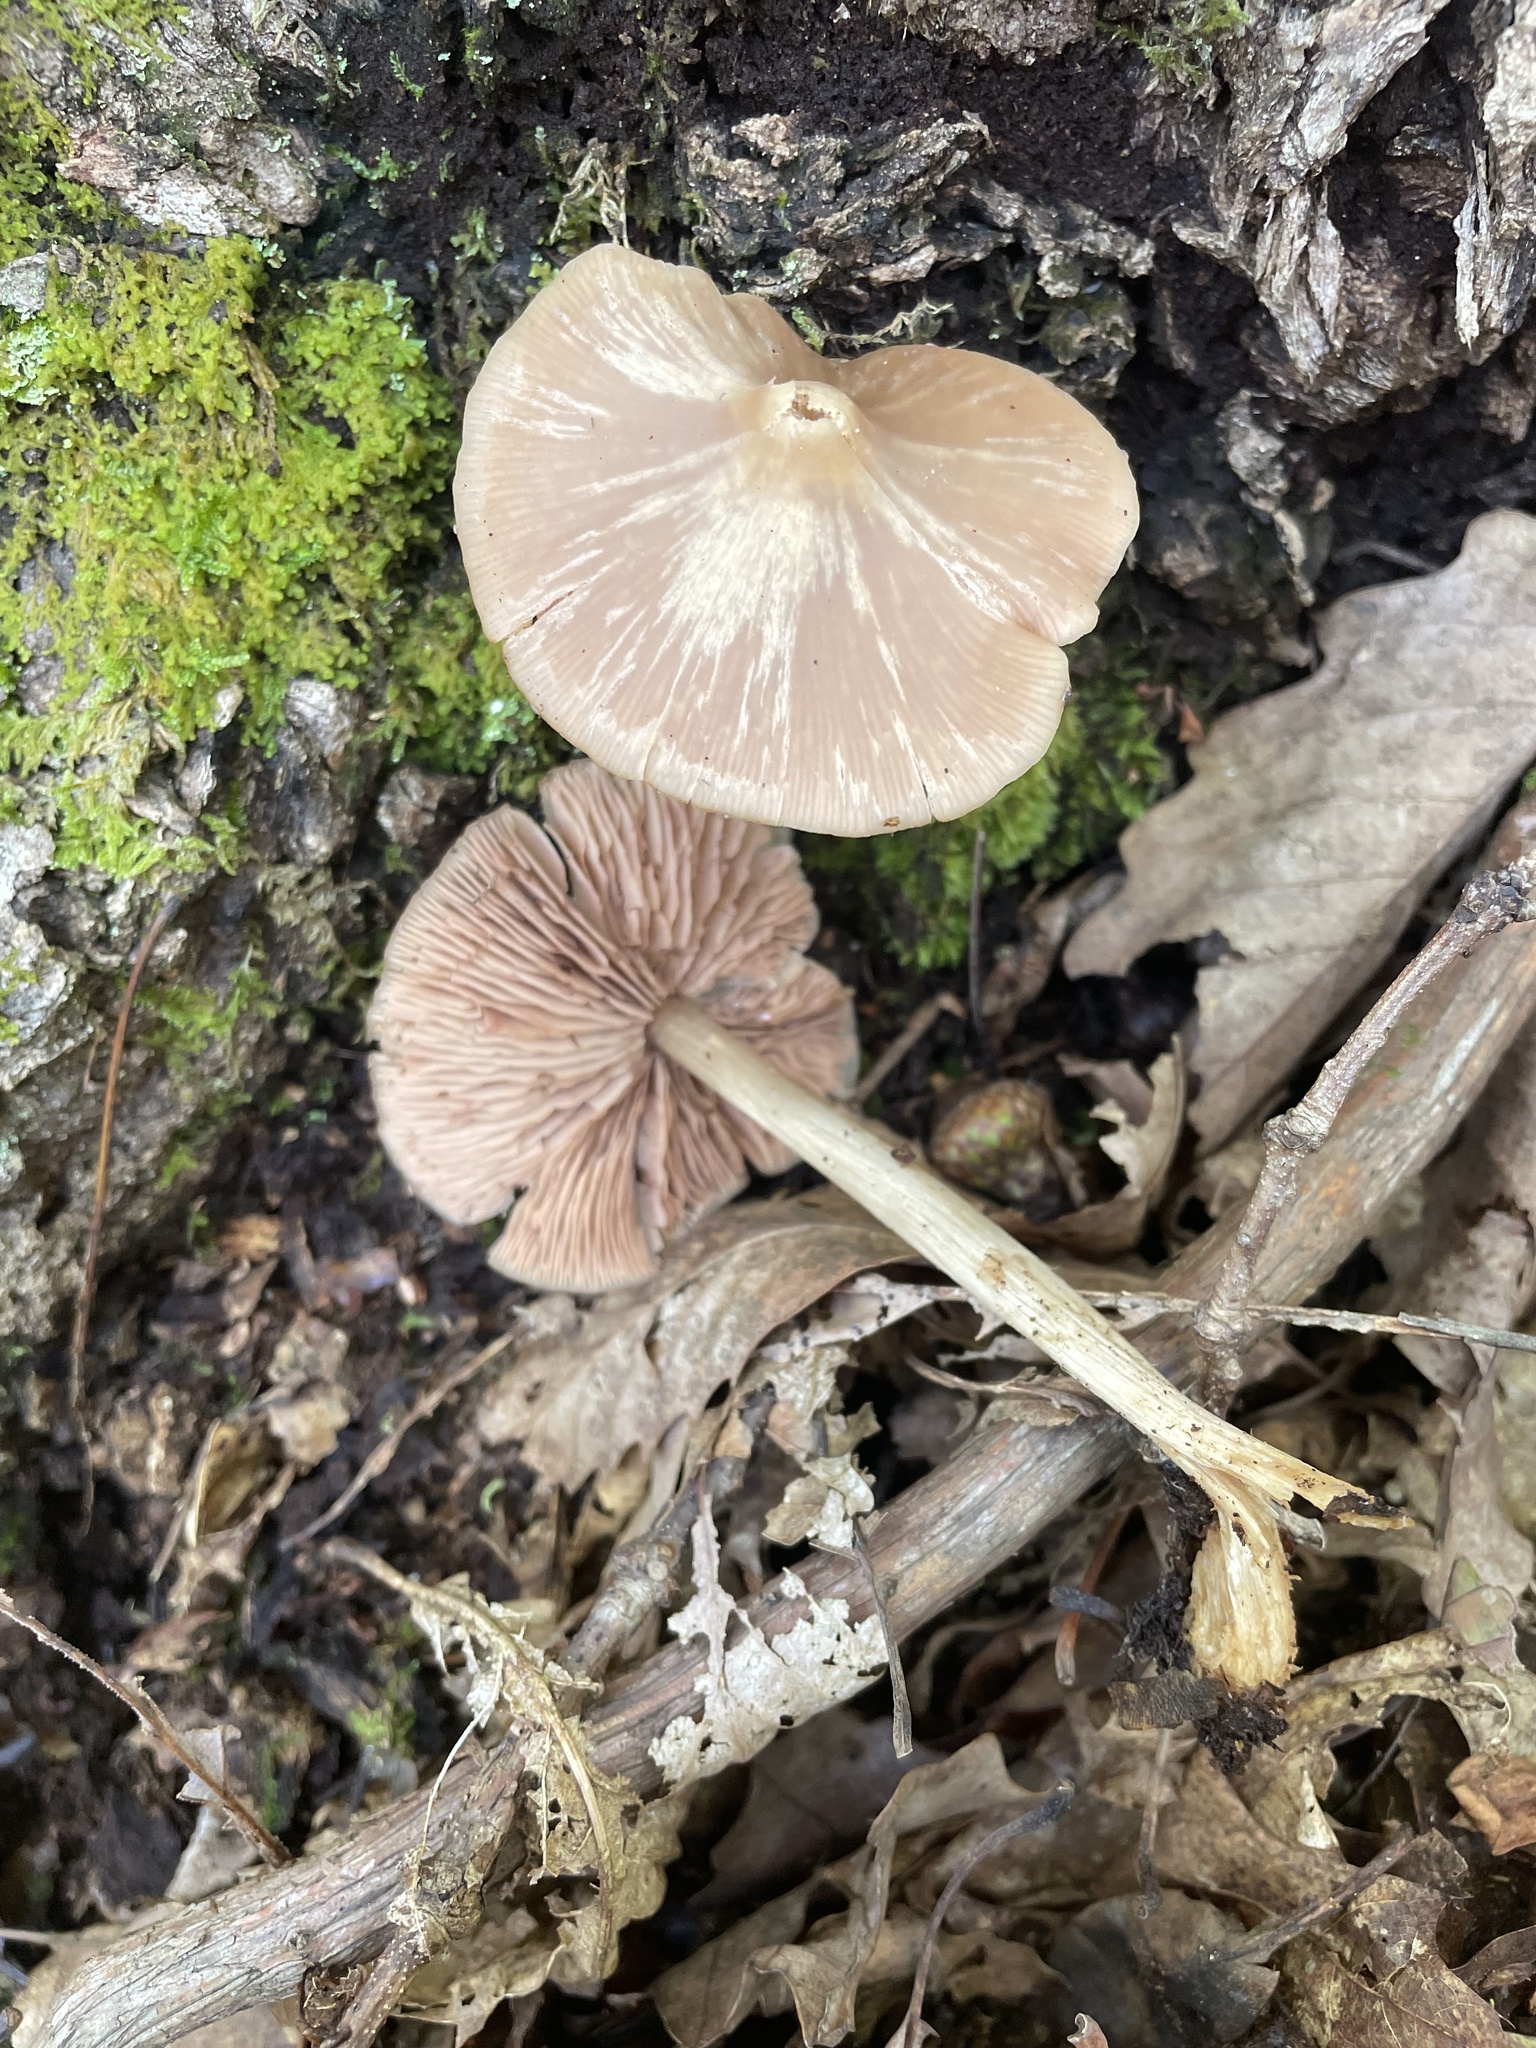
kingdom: Fungi
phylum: Basidiomycota
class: Agaricomycetes
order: Agaricales
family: Entolomataceae
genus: Entoloma
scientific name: Entoloma strictius
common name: Straight-stalked entoloma
